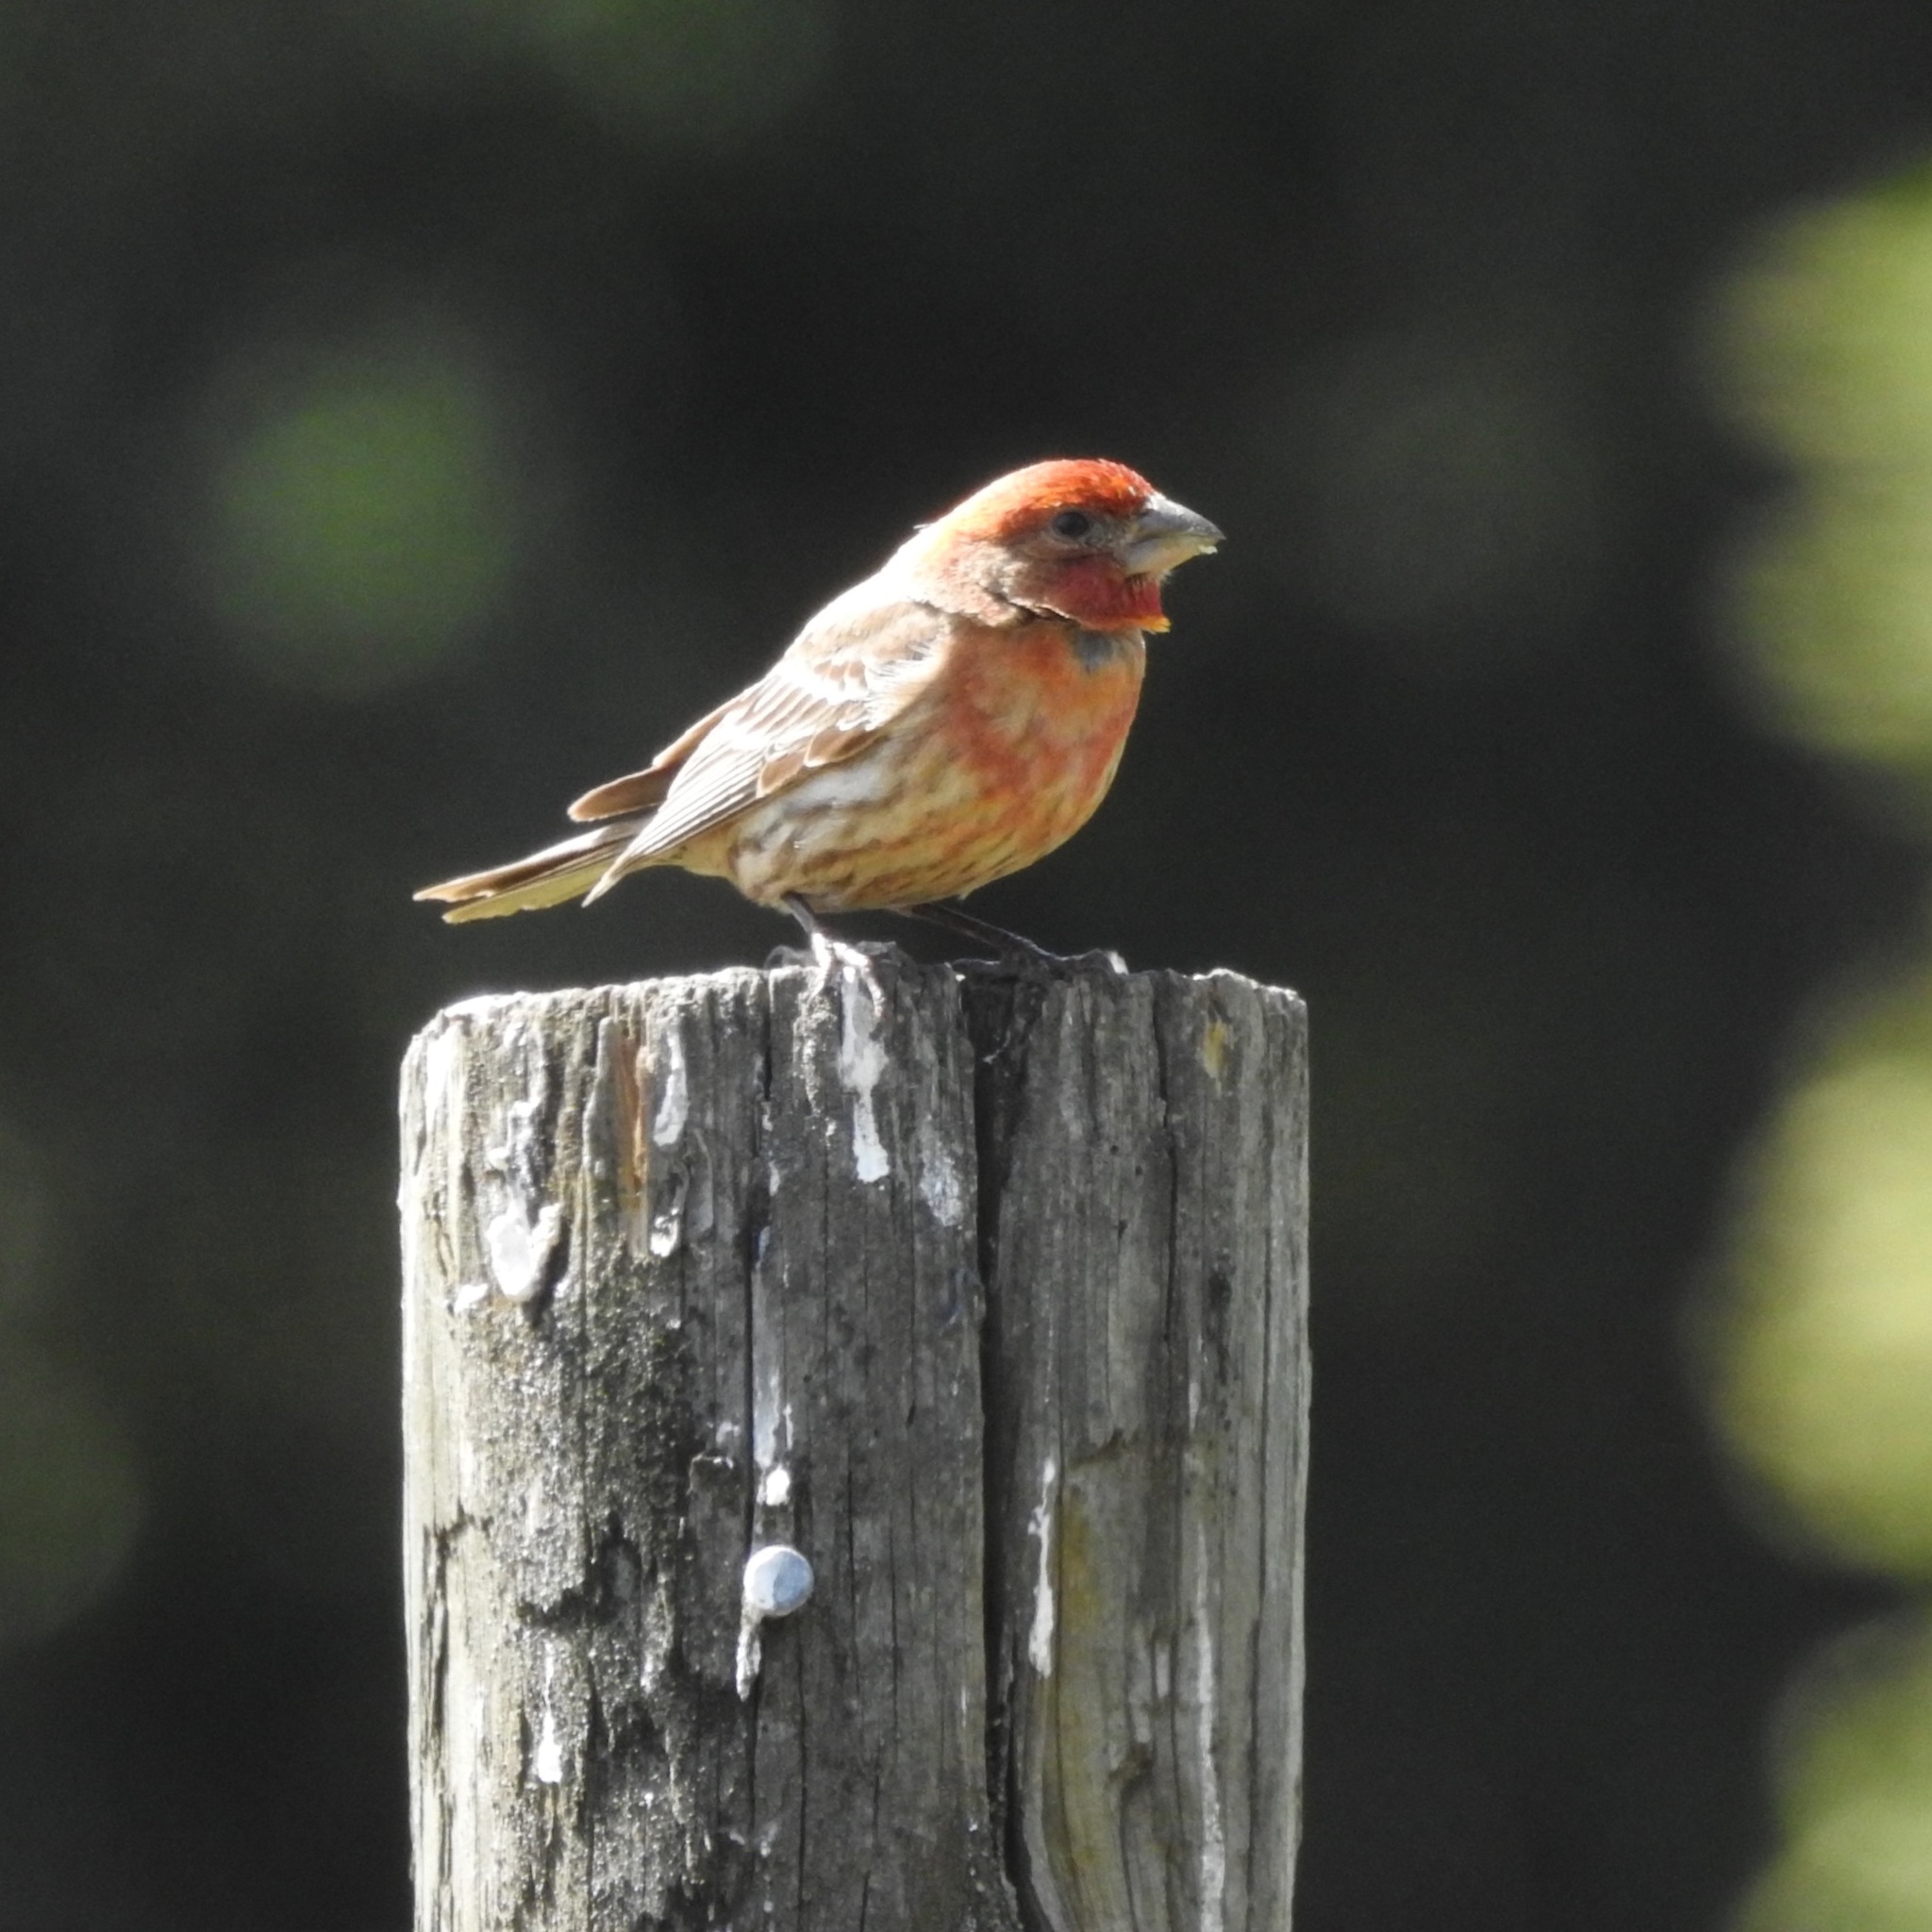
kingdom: Animalia
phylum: Chordata
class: Aves
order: Passeriformes
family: Fringillidae
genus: Haemorhous
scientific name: Haemorhous mexicanus
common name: House finch
